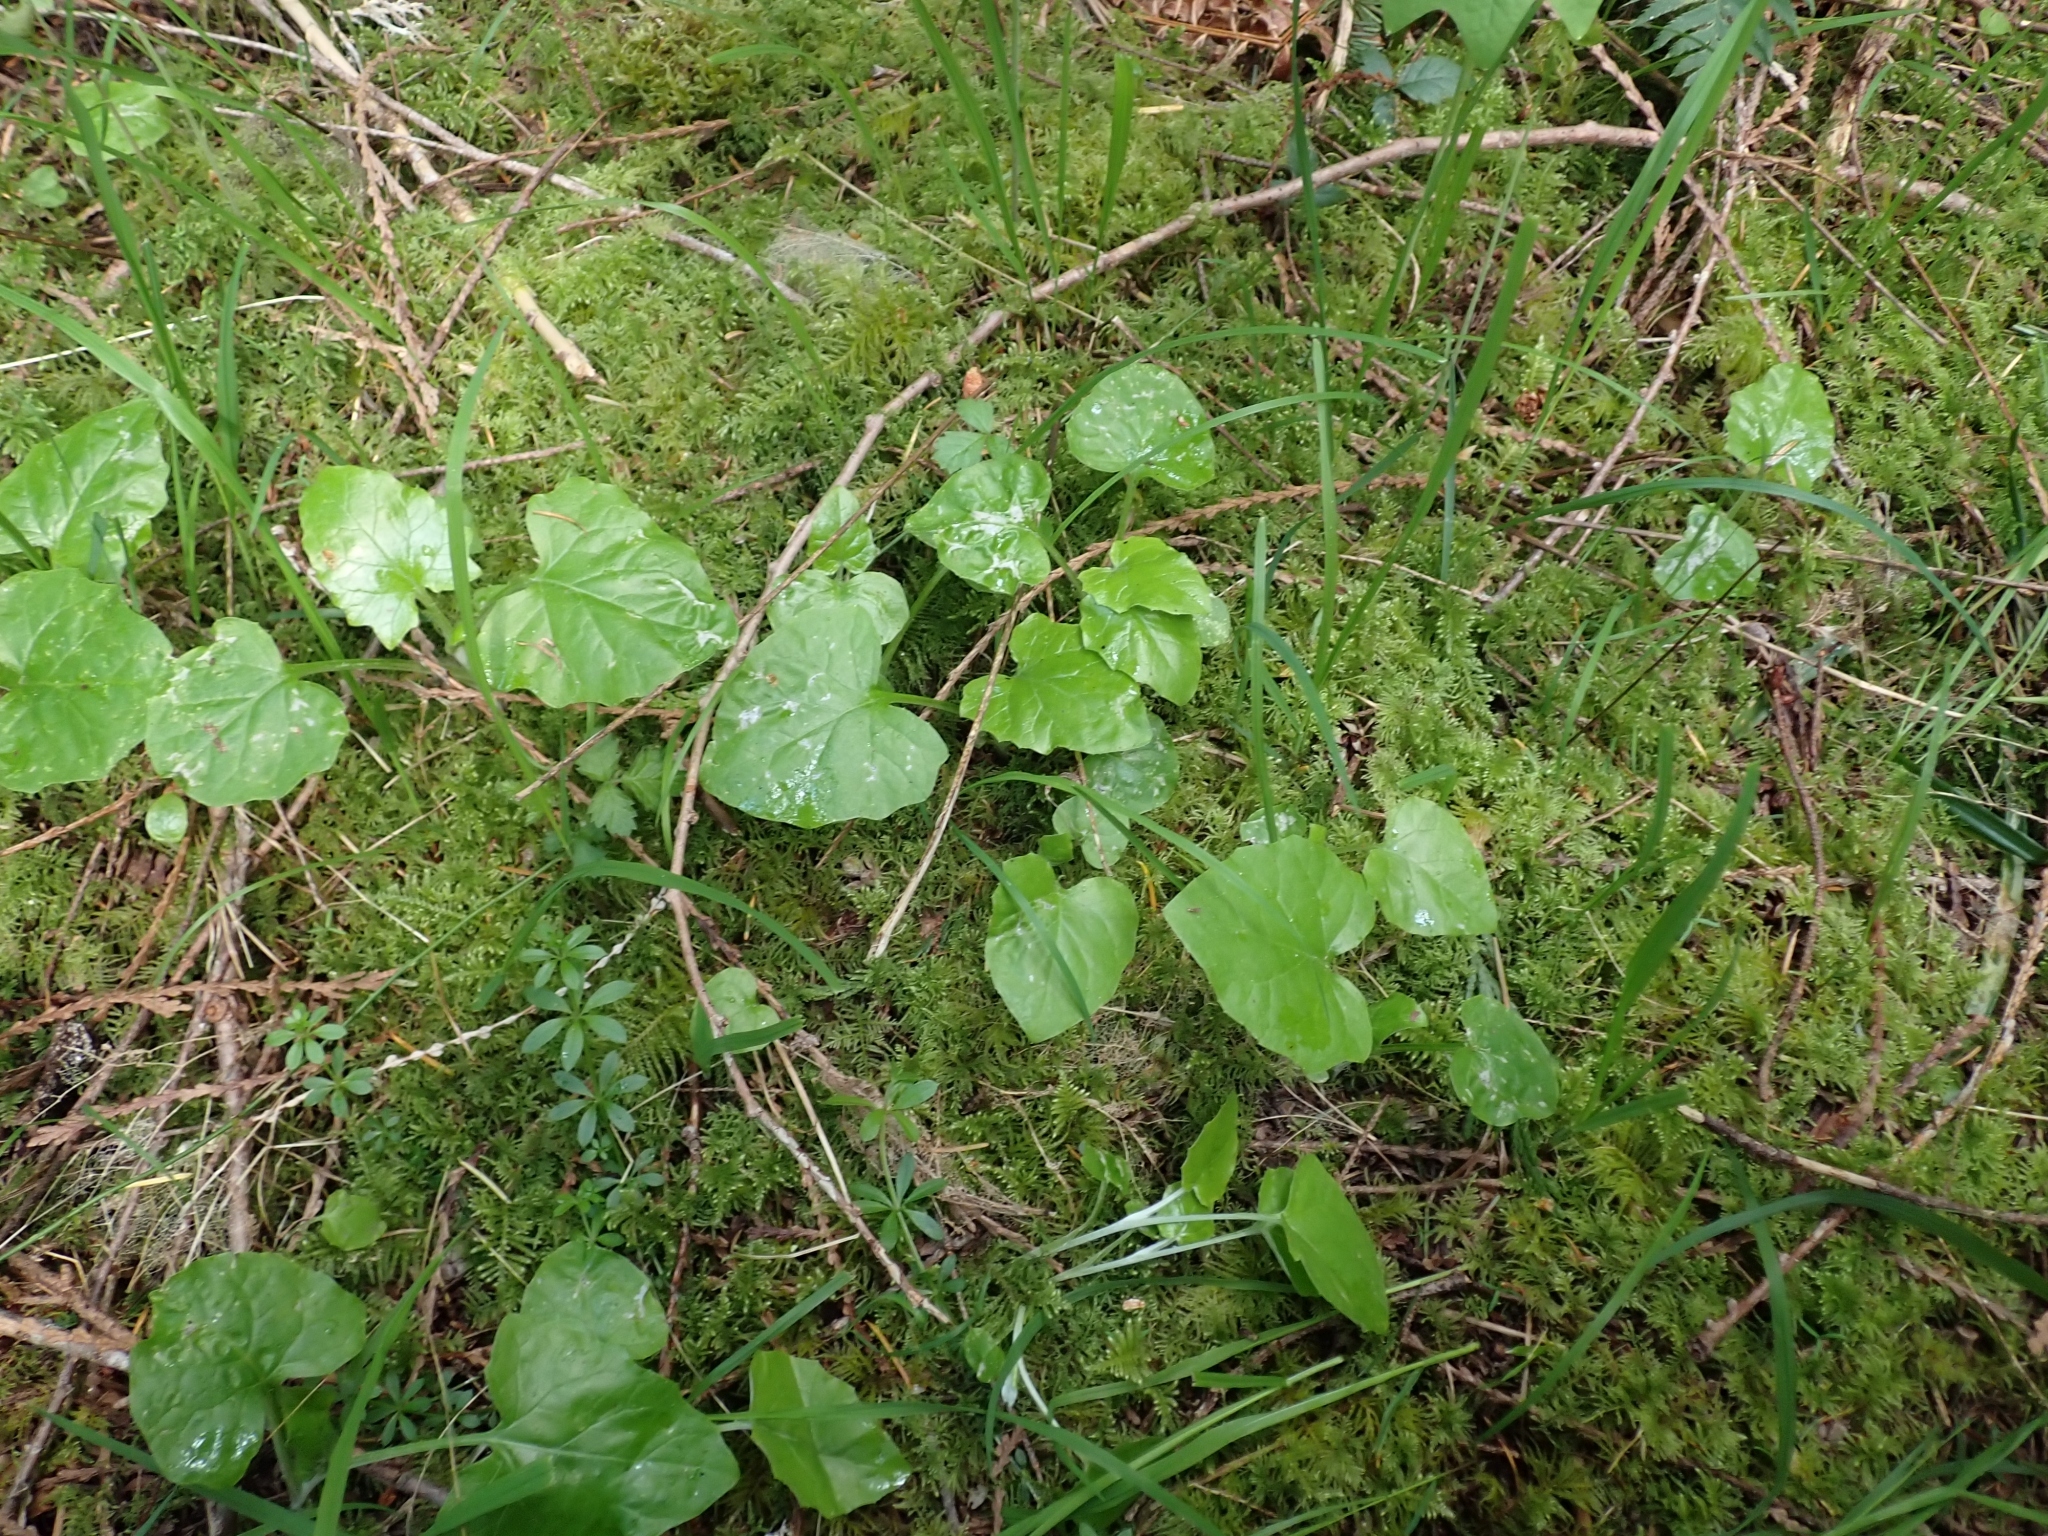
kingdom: Plantae
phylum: Tracheophyta
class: Magnoliopsida
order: Asterales
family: Asteraceae
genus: Adenocaulon
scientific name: Adenocaulon bicolor
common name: Trailplant
